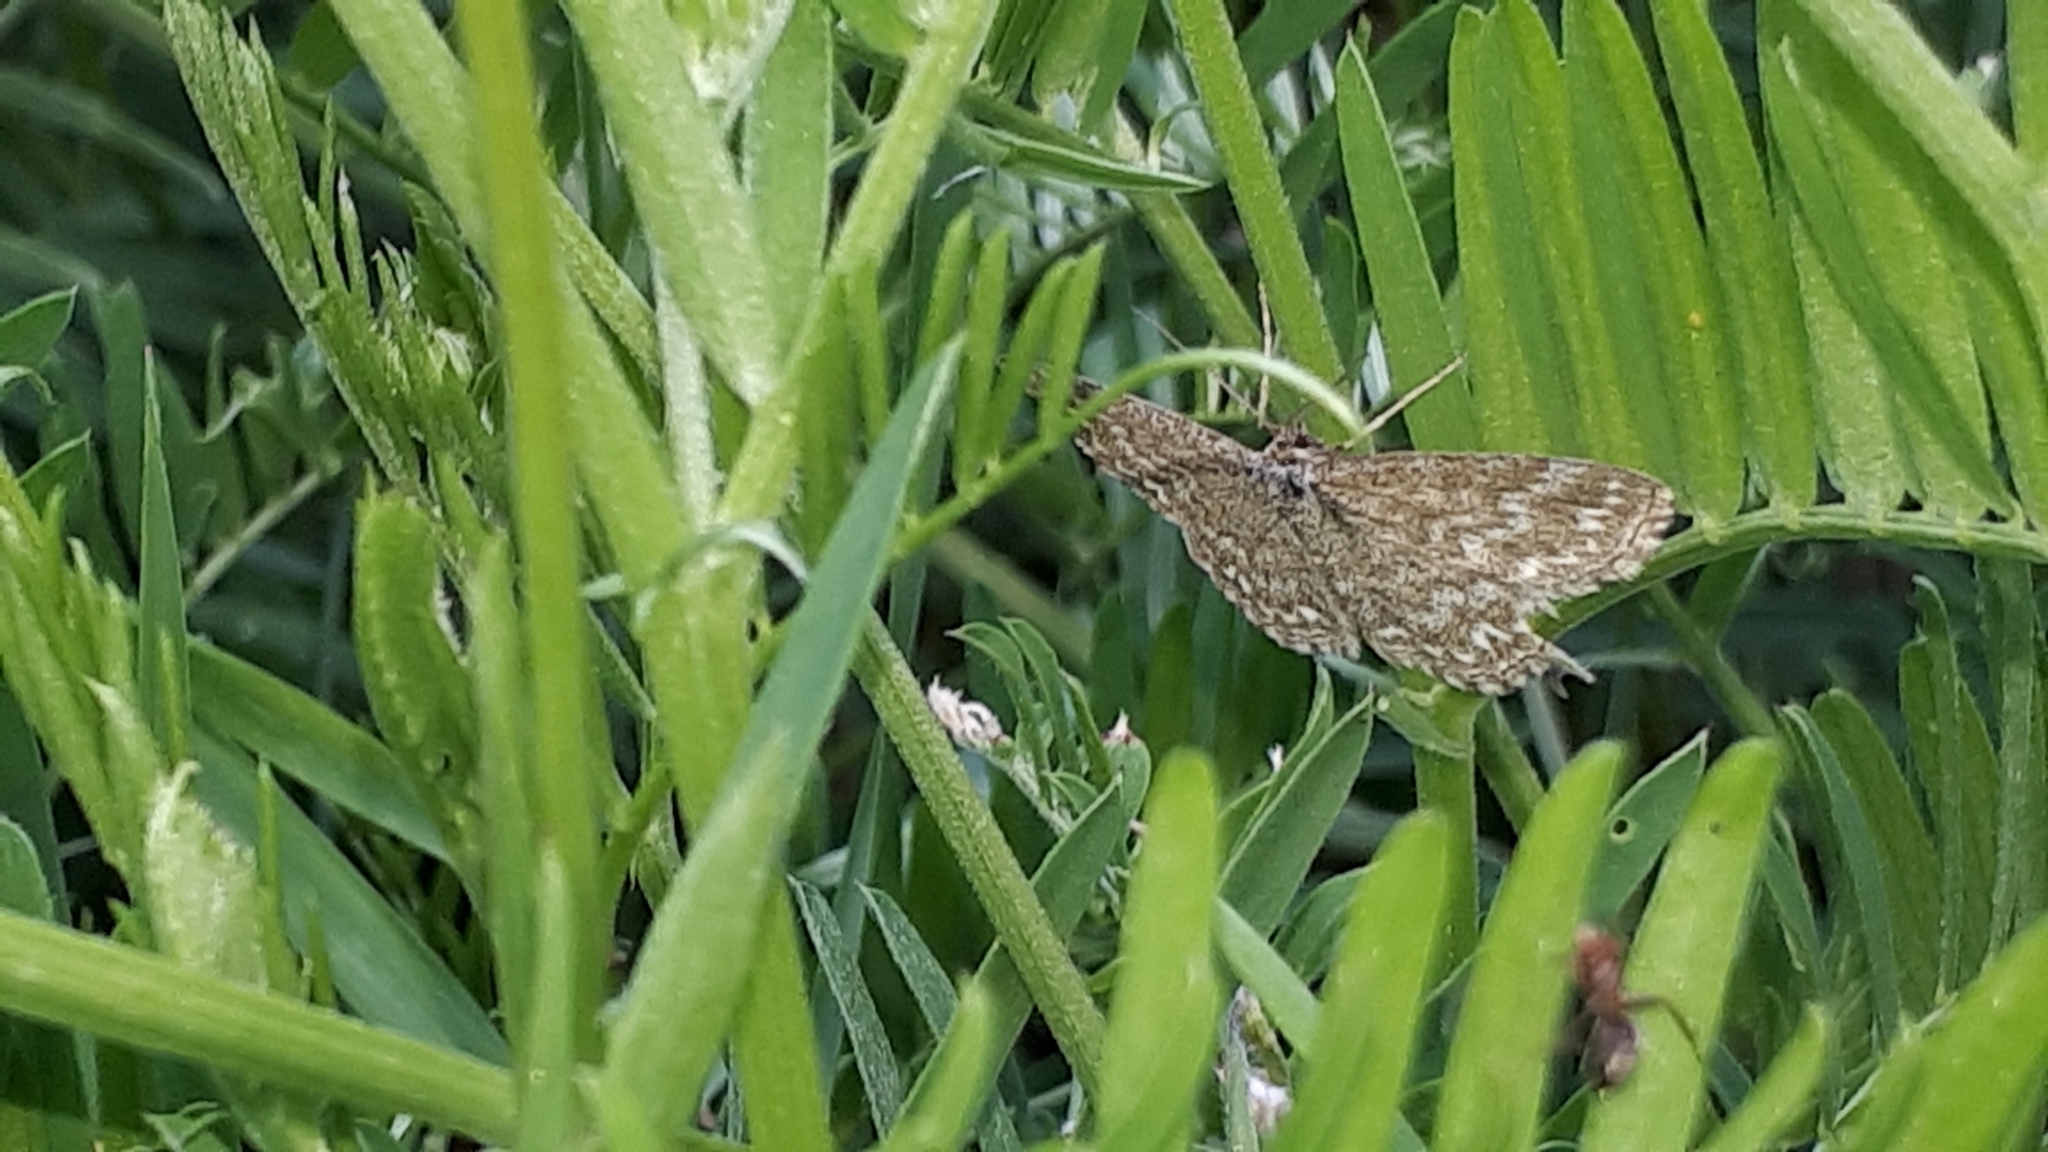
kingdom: Animalia
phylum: Arthropoda
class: Insecta
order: Lepidoptera
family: Geometridae
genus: Scopula
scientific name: Scopula immorata
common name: Lewes wave
